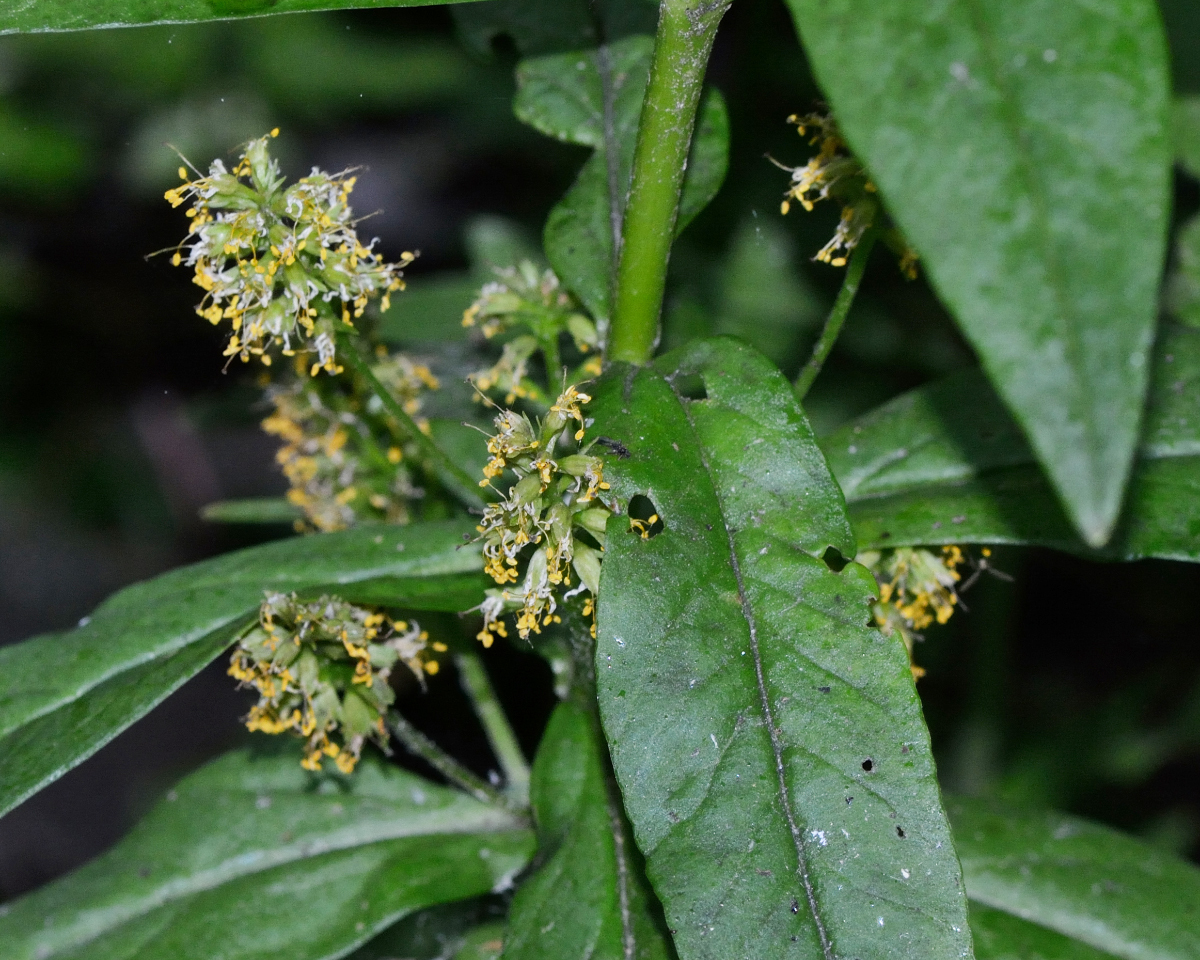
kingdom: Plantae
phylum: Tracheophyta
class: Magnoliopsida
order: Ericales
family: Primulaceae
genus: Lysimachia
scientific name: Lysimachia thyrsiflora
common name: Tufted loosestrife
